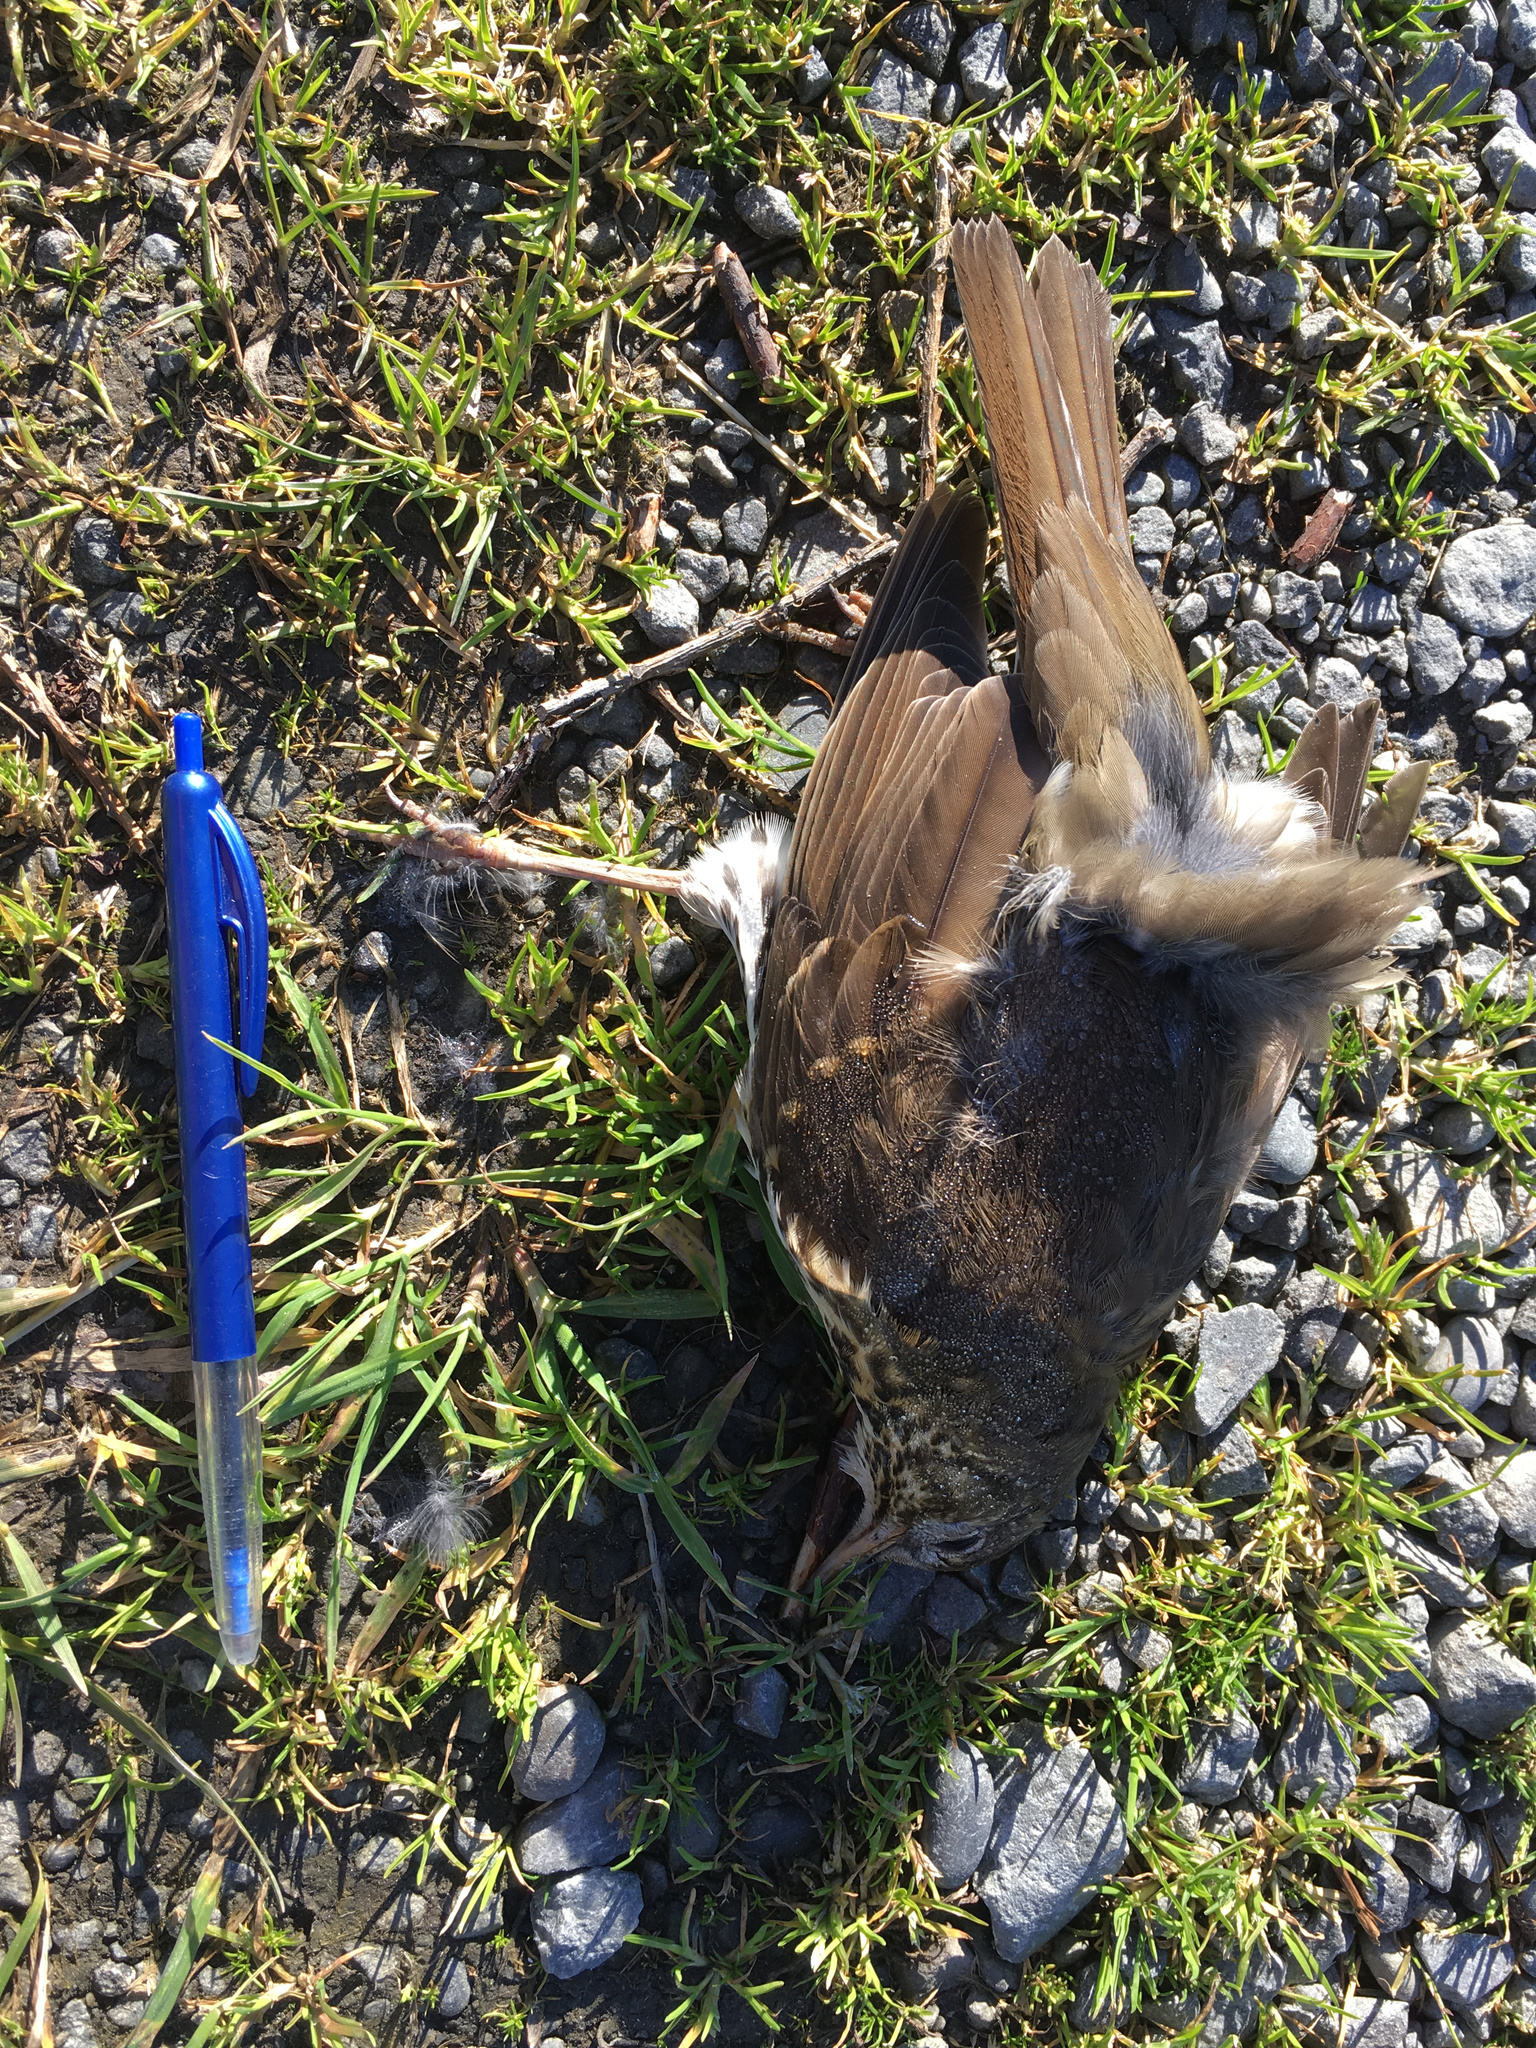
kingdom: Animalia
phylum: Chordata
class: Aves
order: Passeriformes
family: Turdidae
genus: Turdus
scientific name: Turdus philomelos
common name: Song thrush
